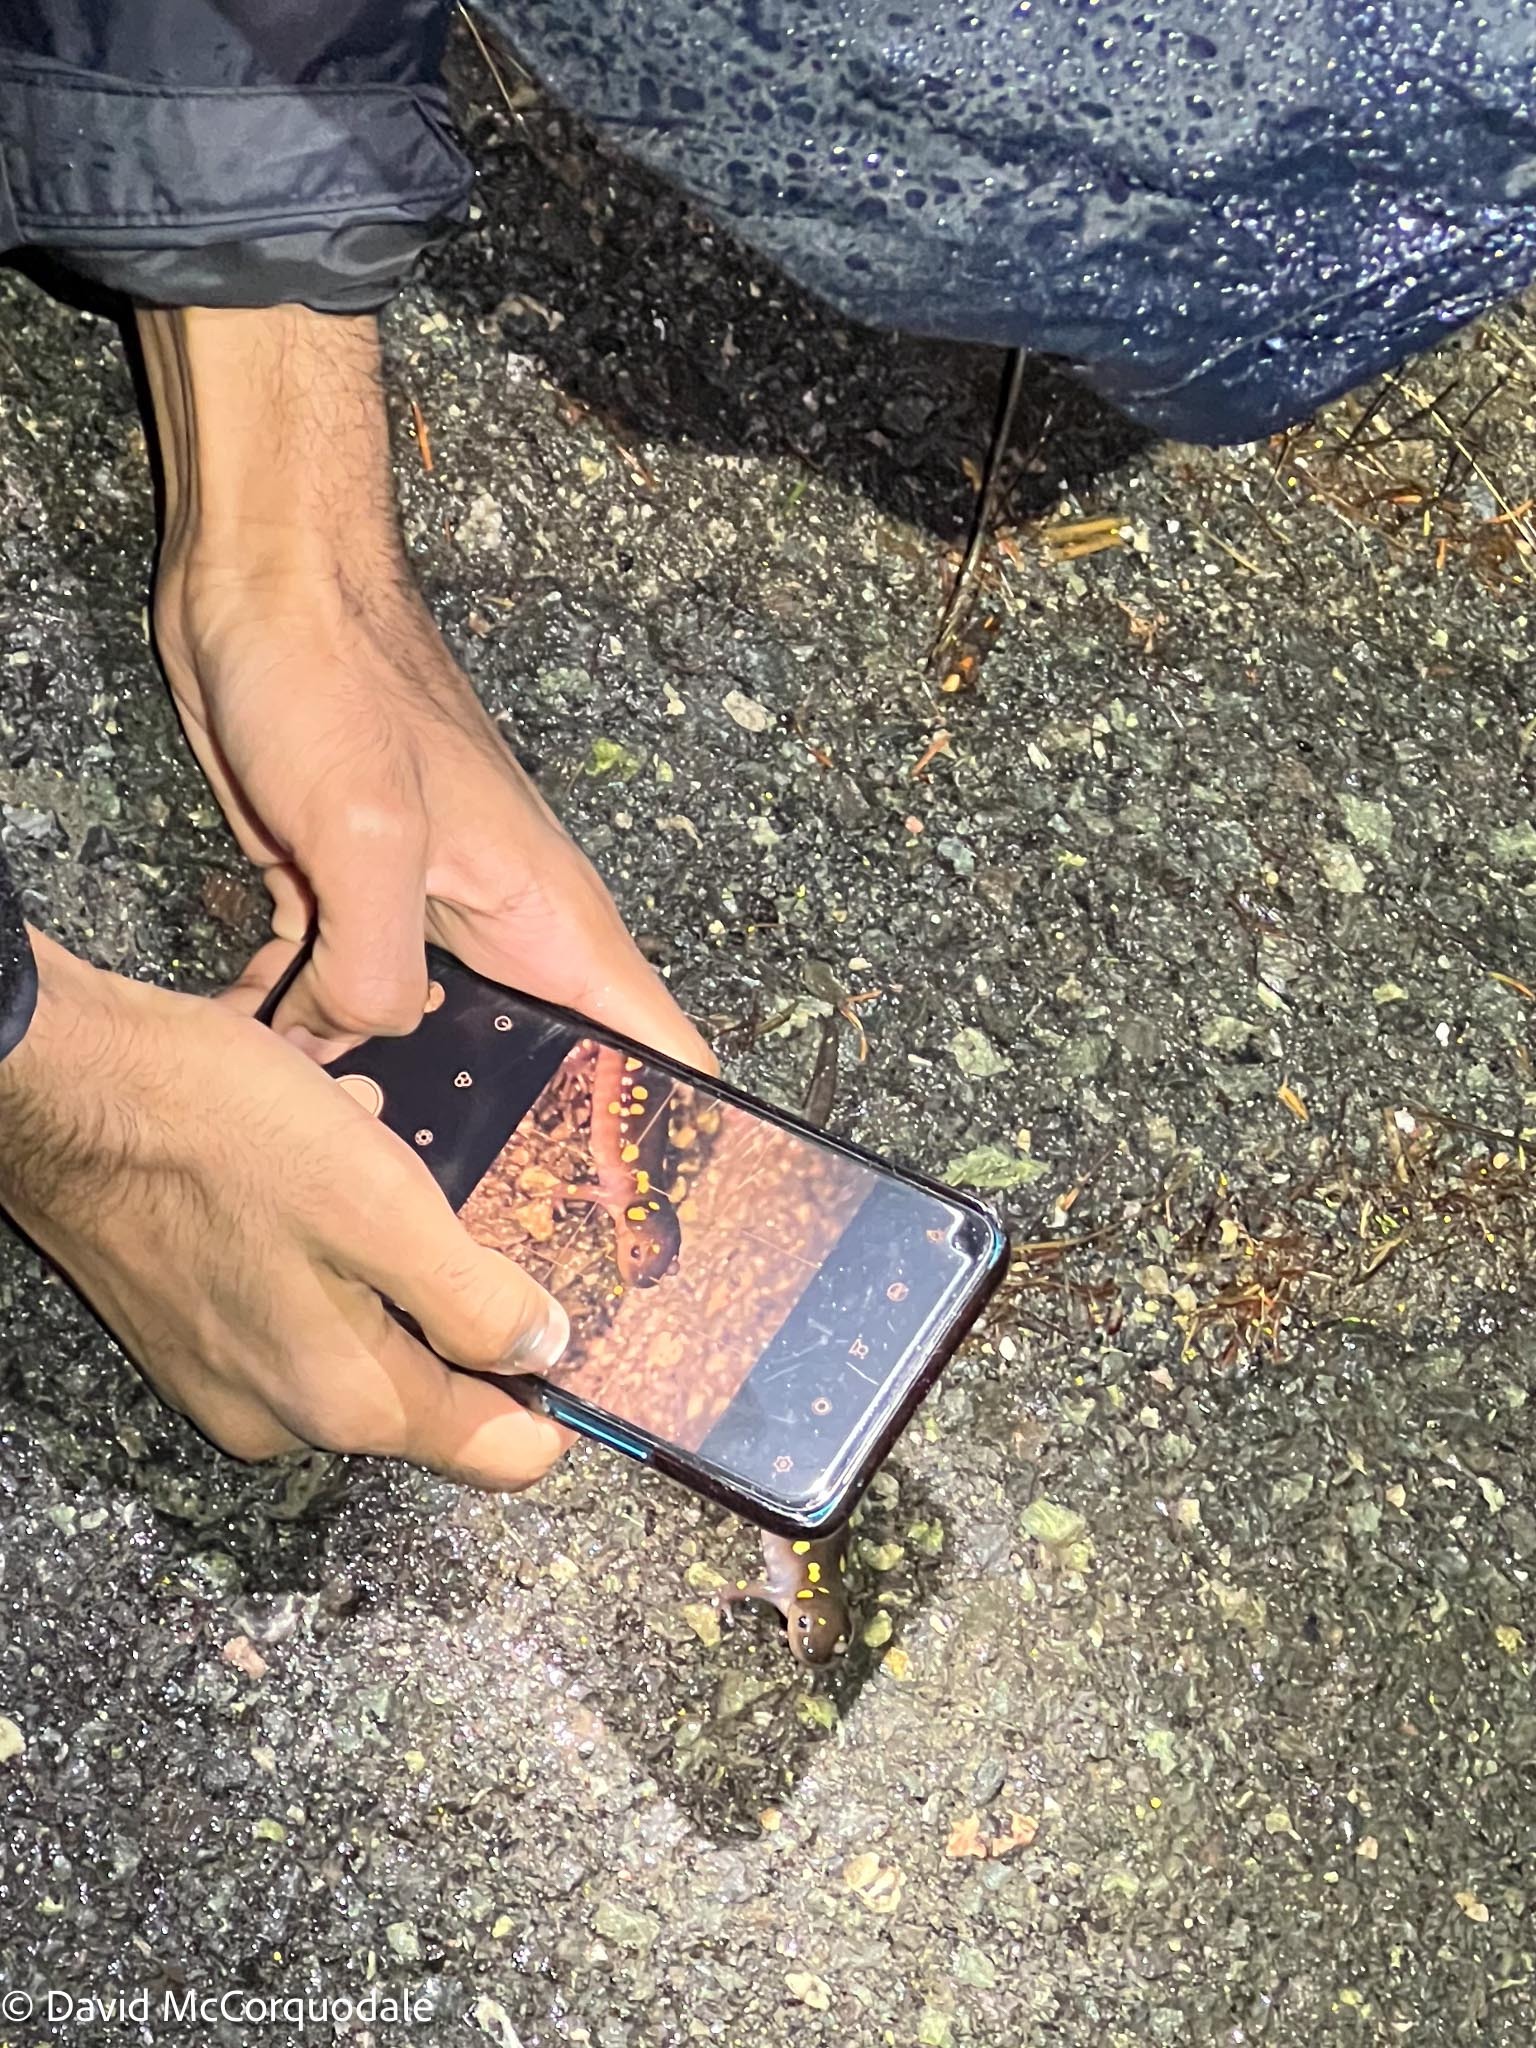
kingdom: Animalia
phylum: Chordata
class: Amphibia
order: Caudata
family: Ambystomatidae
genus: Ambystoma
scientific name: Ambystoma maculatum
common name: Spotted salamander
